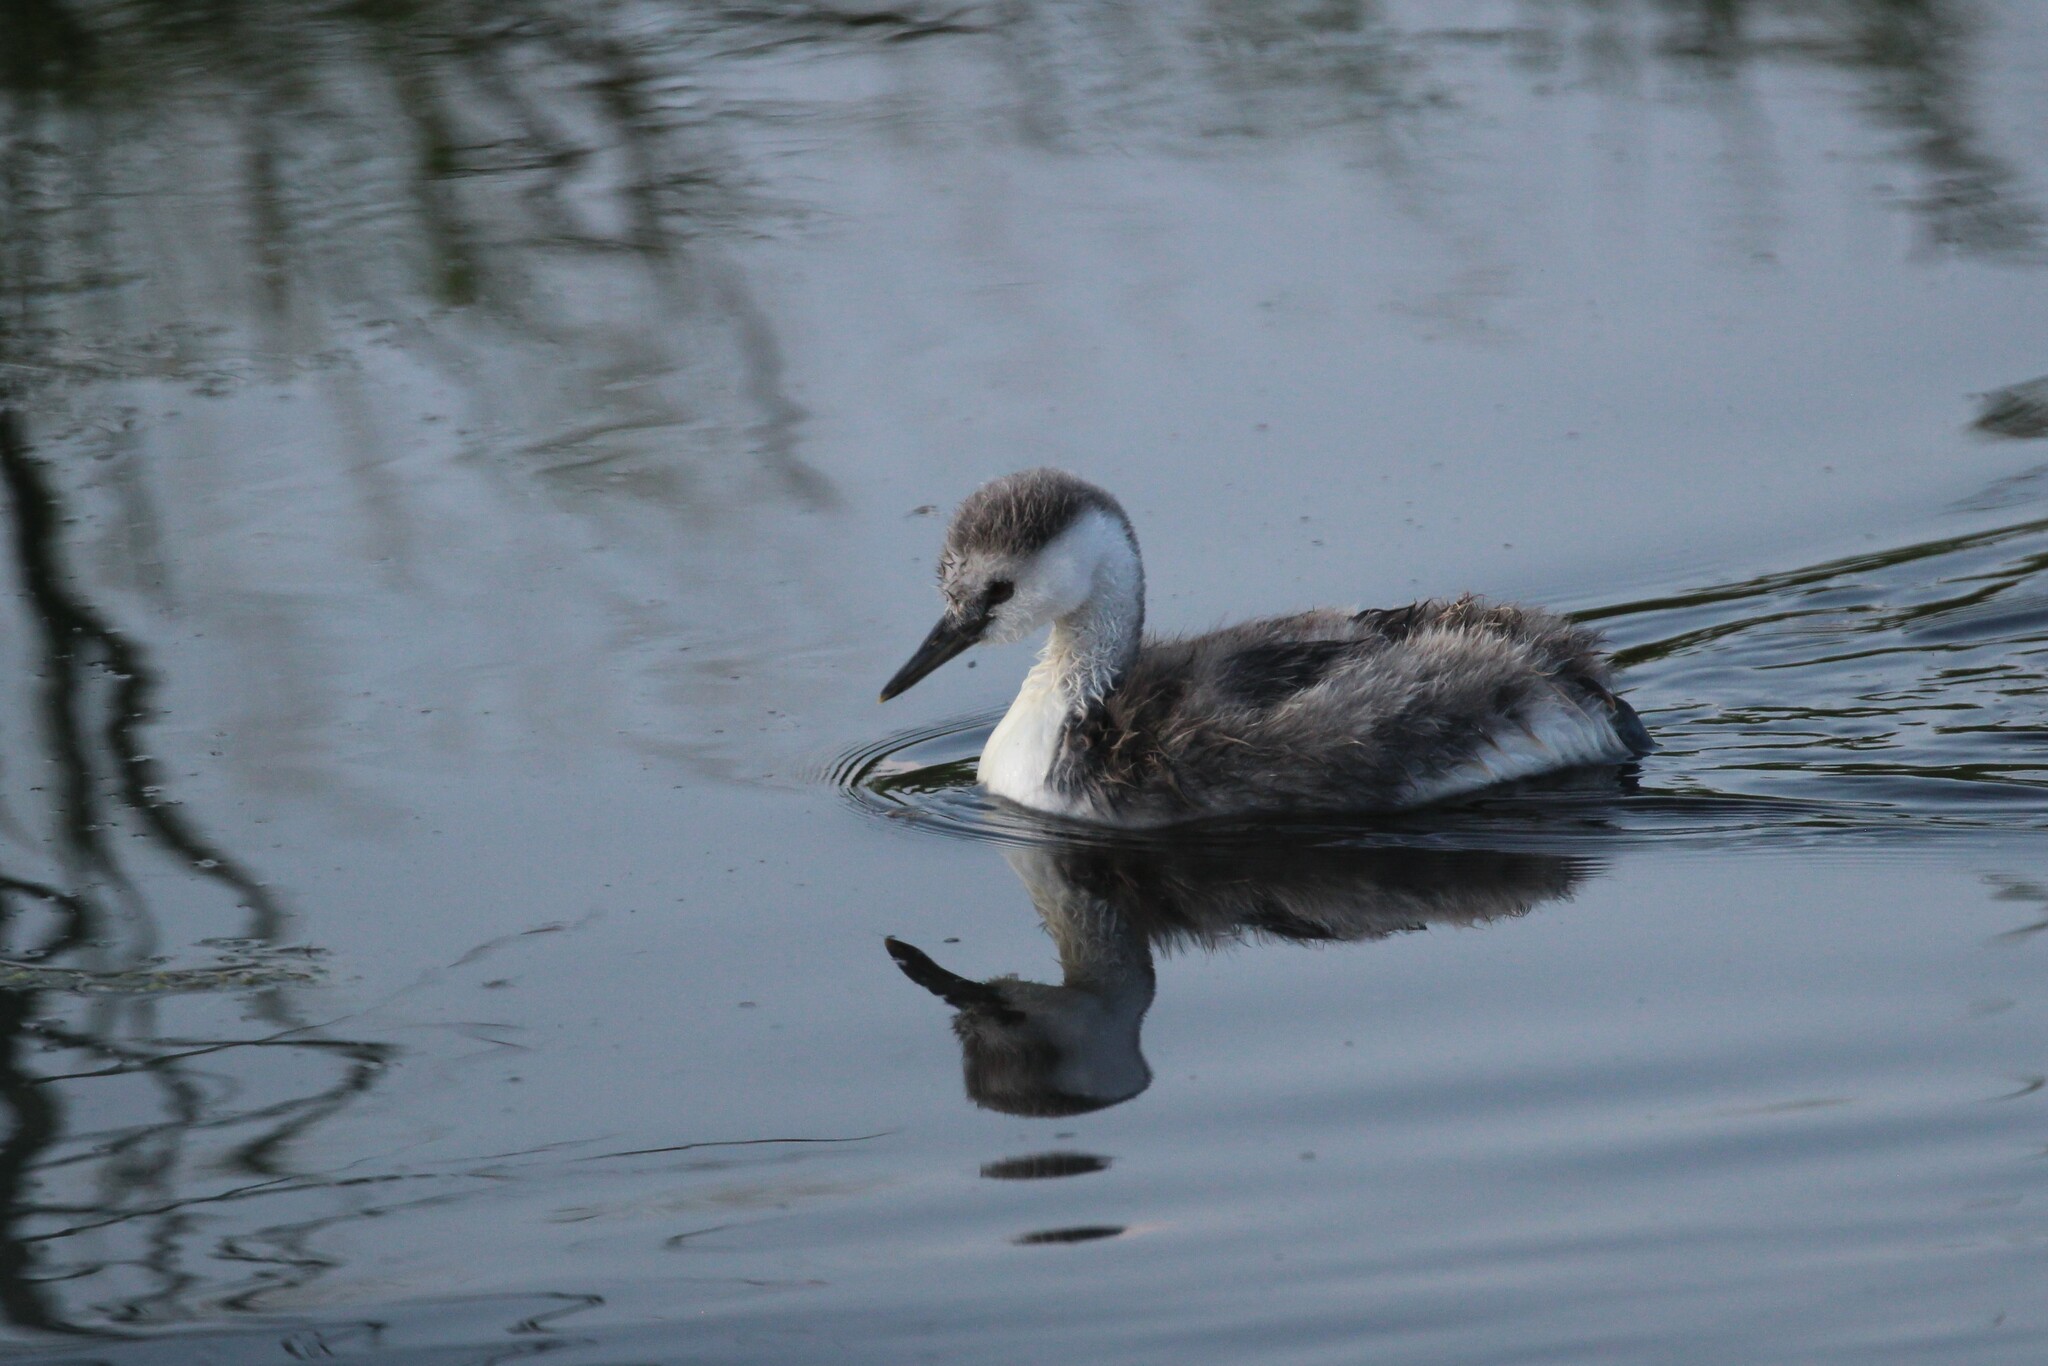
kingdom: Animalia
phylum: Chordata
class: Aves
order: Podicipediformes
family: Podicipedidae
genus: Aechmophorus
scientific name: Aechmophorus occidentalis
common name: Western grebe
